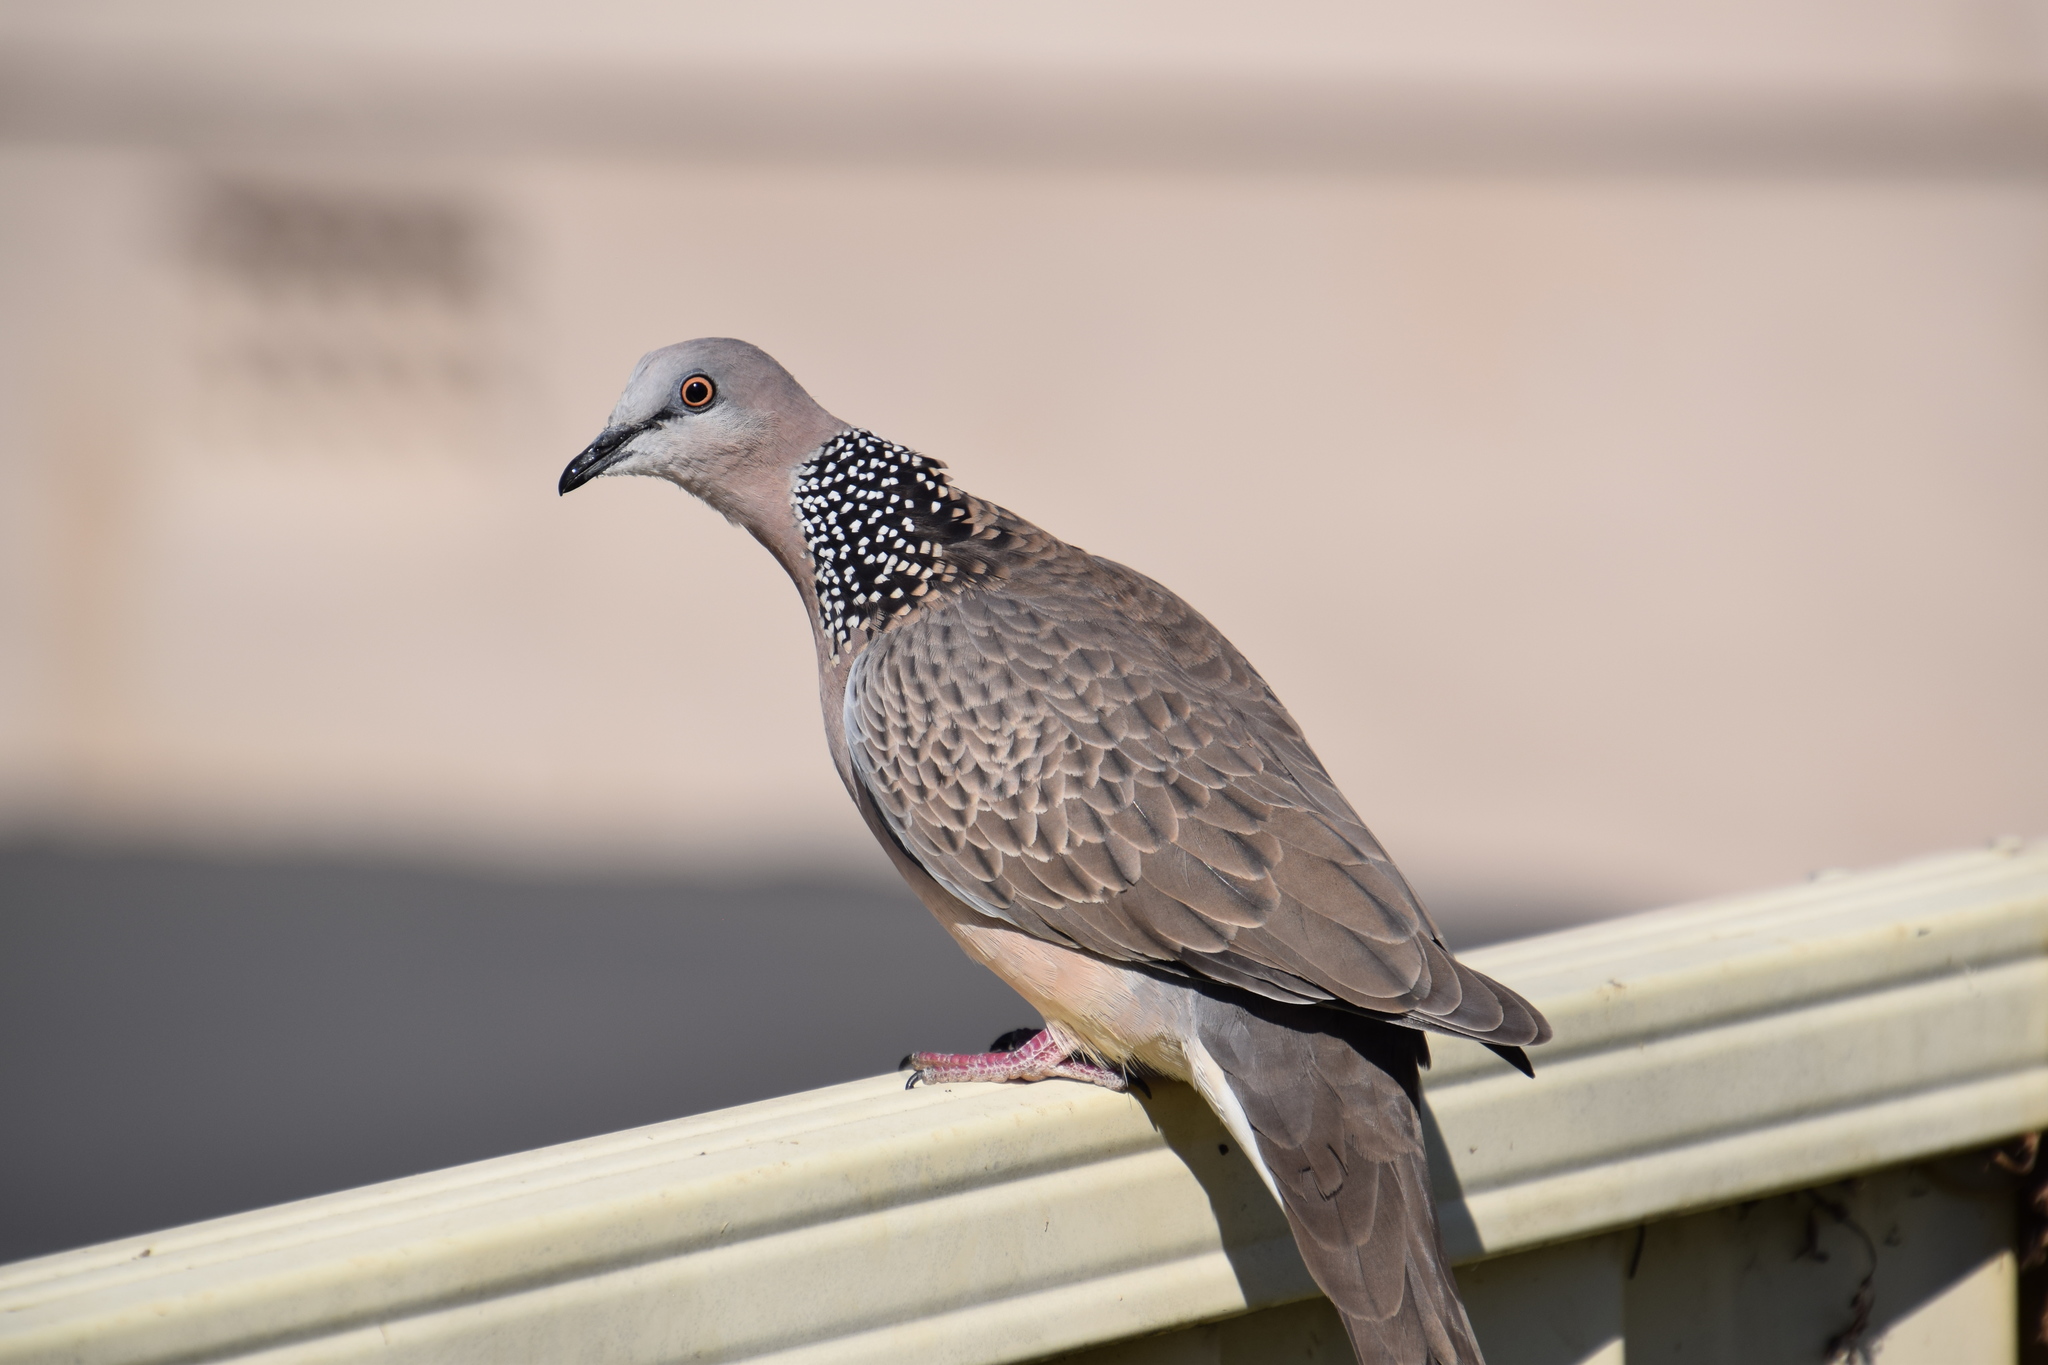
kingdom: Animalia
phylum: Chordata
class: Aves
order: Columbiformes
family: Columbidae
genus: Spilopelia
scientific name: Spilopelia chinensis
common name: Spotted dove
